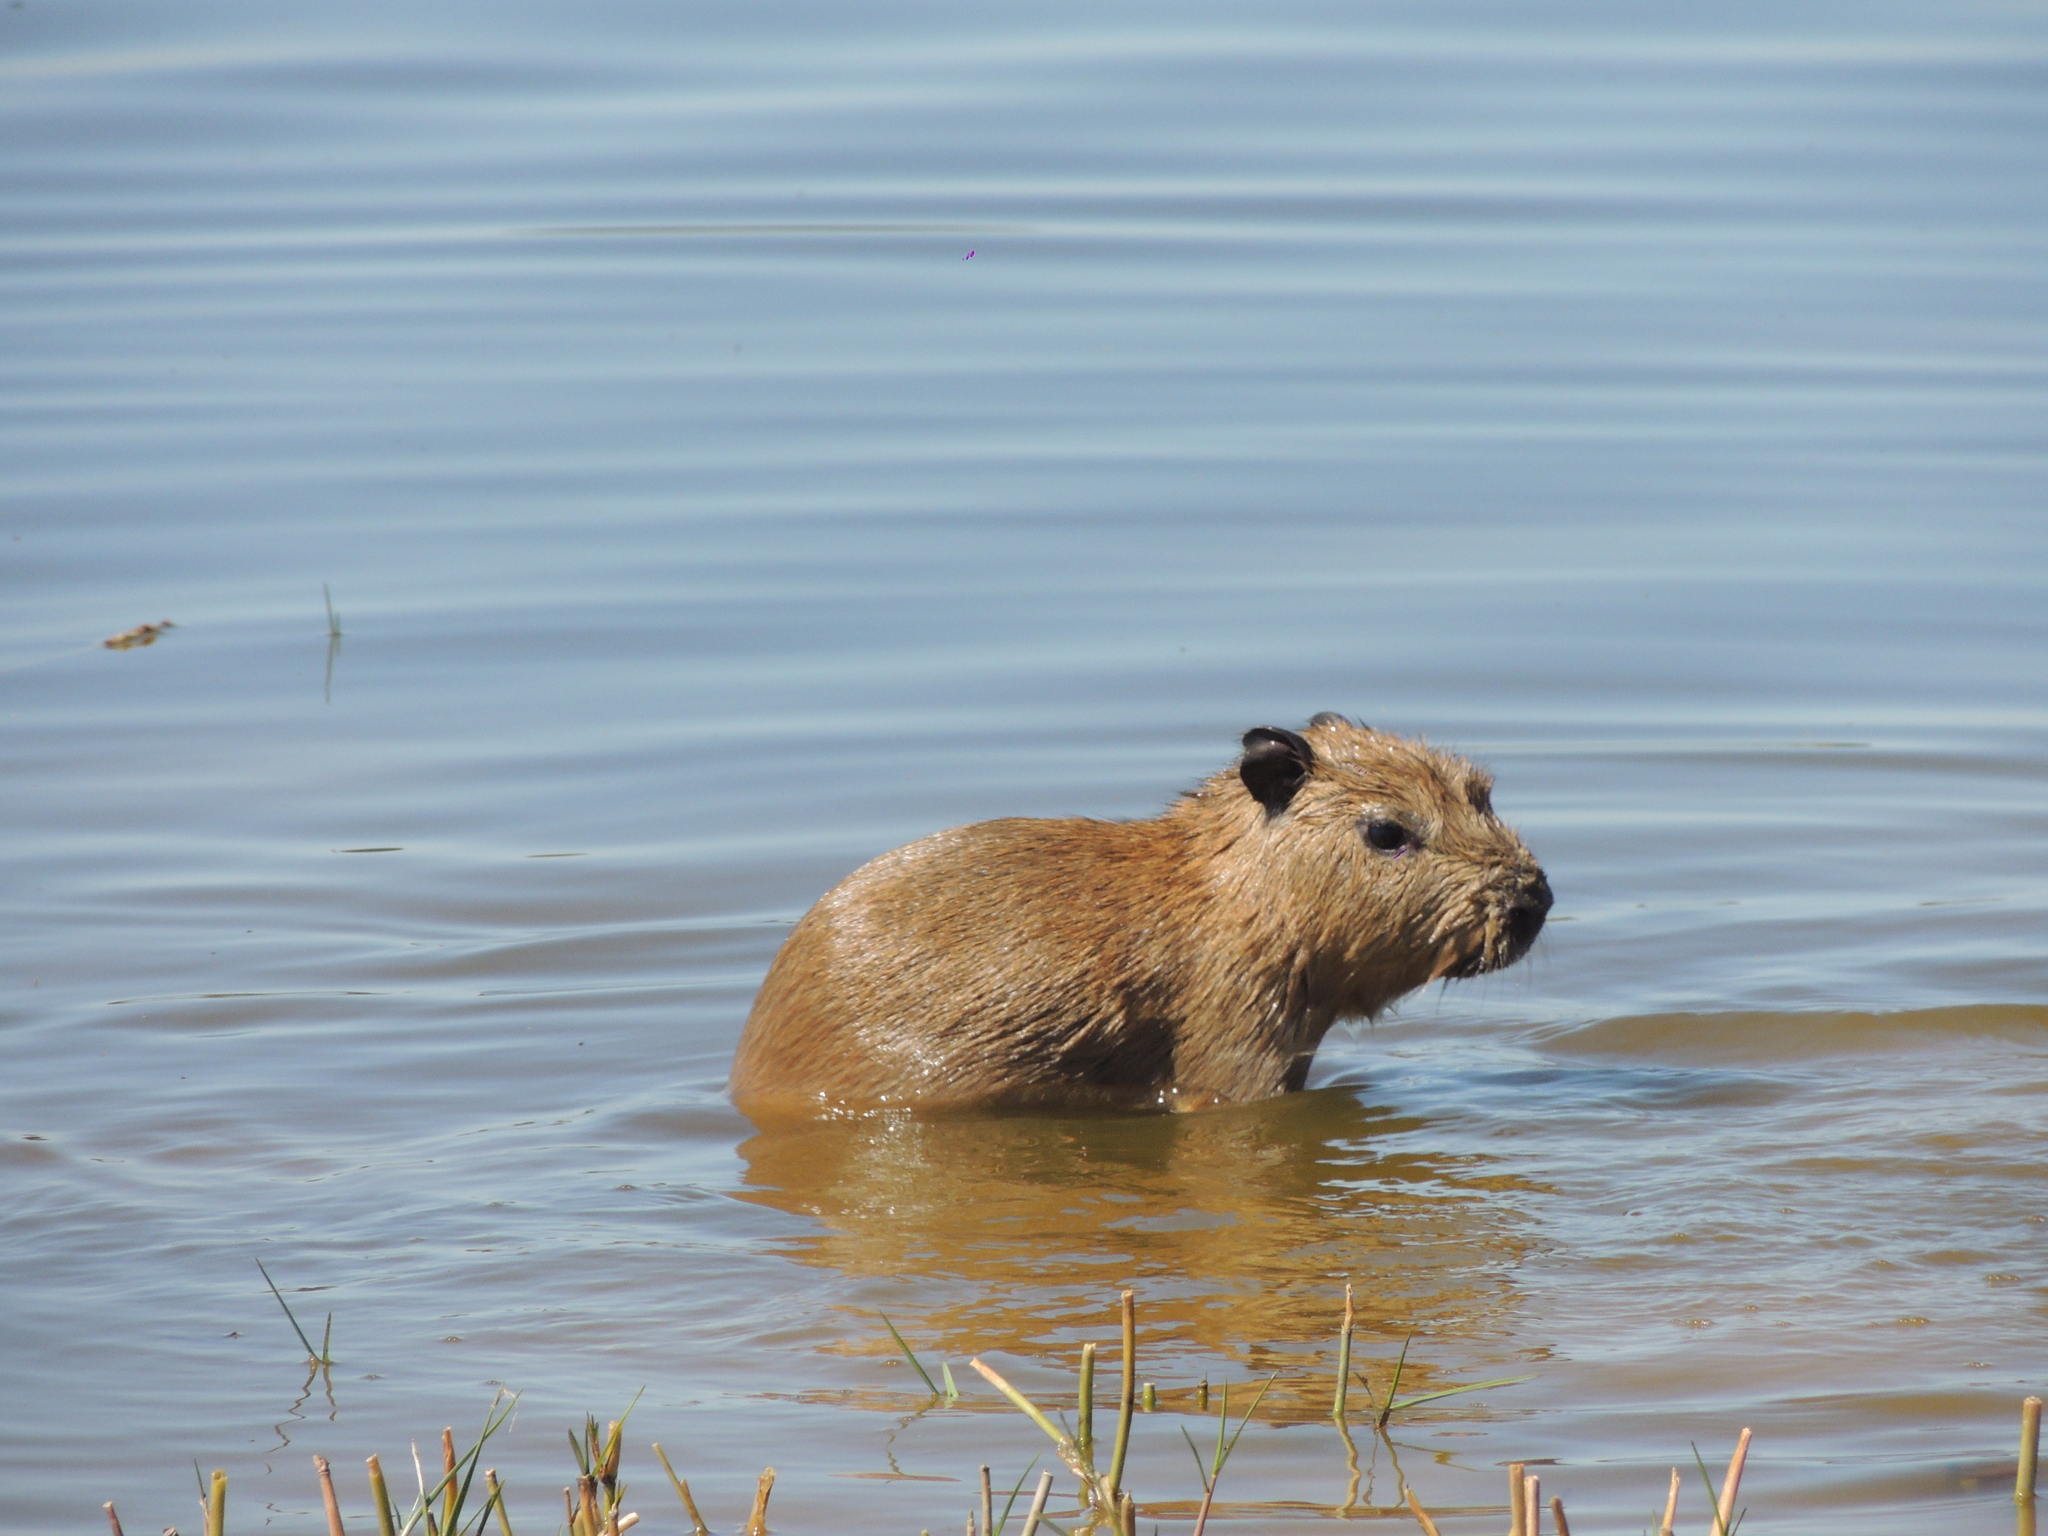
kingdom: Animalia
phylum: Chordata
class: Mammalia
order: Rodentia
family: Caviidae
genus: Hydrochoerus
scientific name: Hydrochoerus hydrochaeris
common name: Capybara
